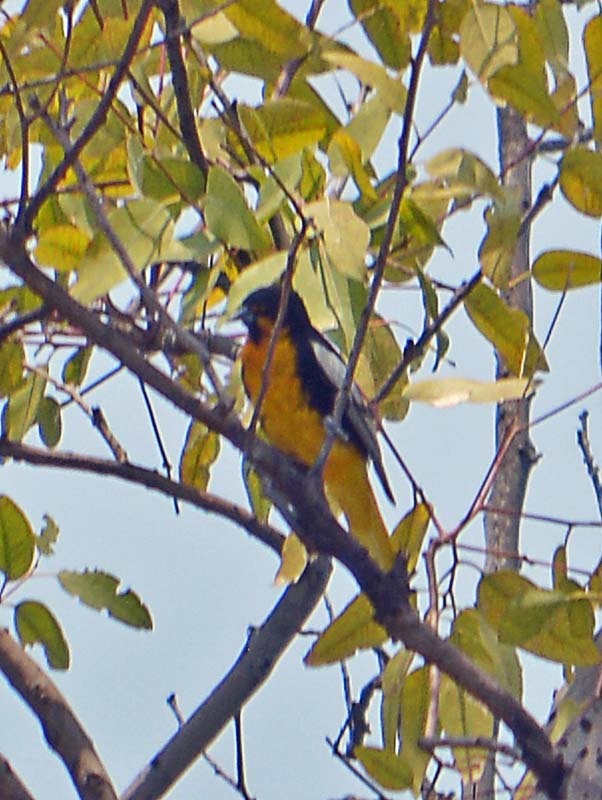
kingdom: Animalia
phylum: Chordata
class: Aves
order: Passeriformes
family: Icteridae
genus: Icterus
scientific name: Icterus abeillei
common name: Black-backed oriole
